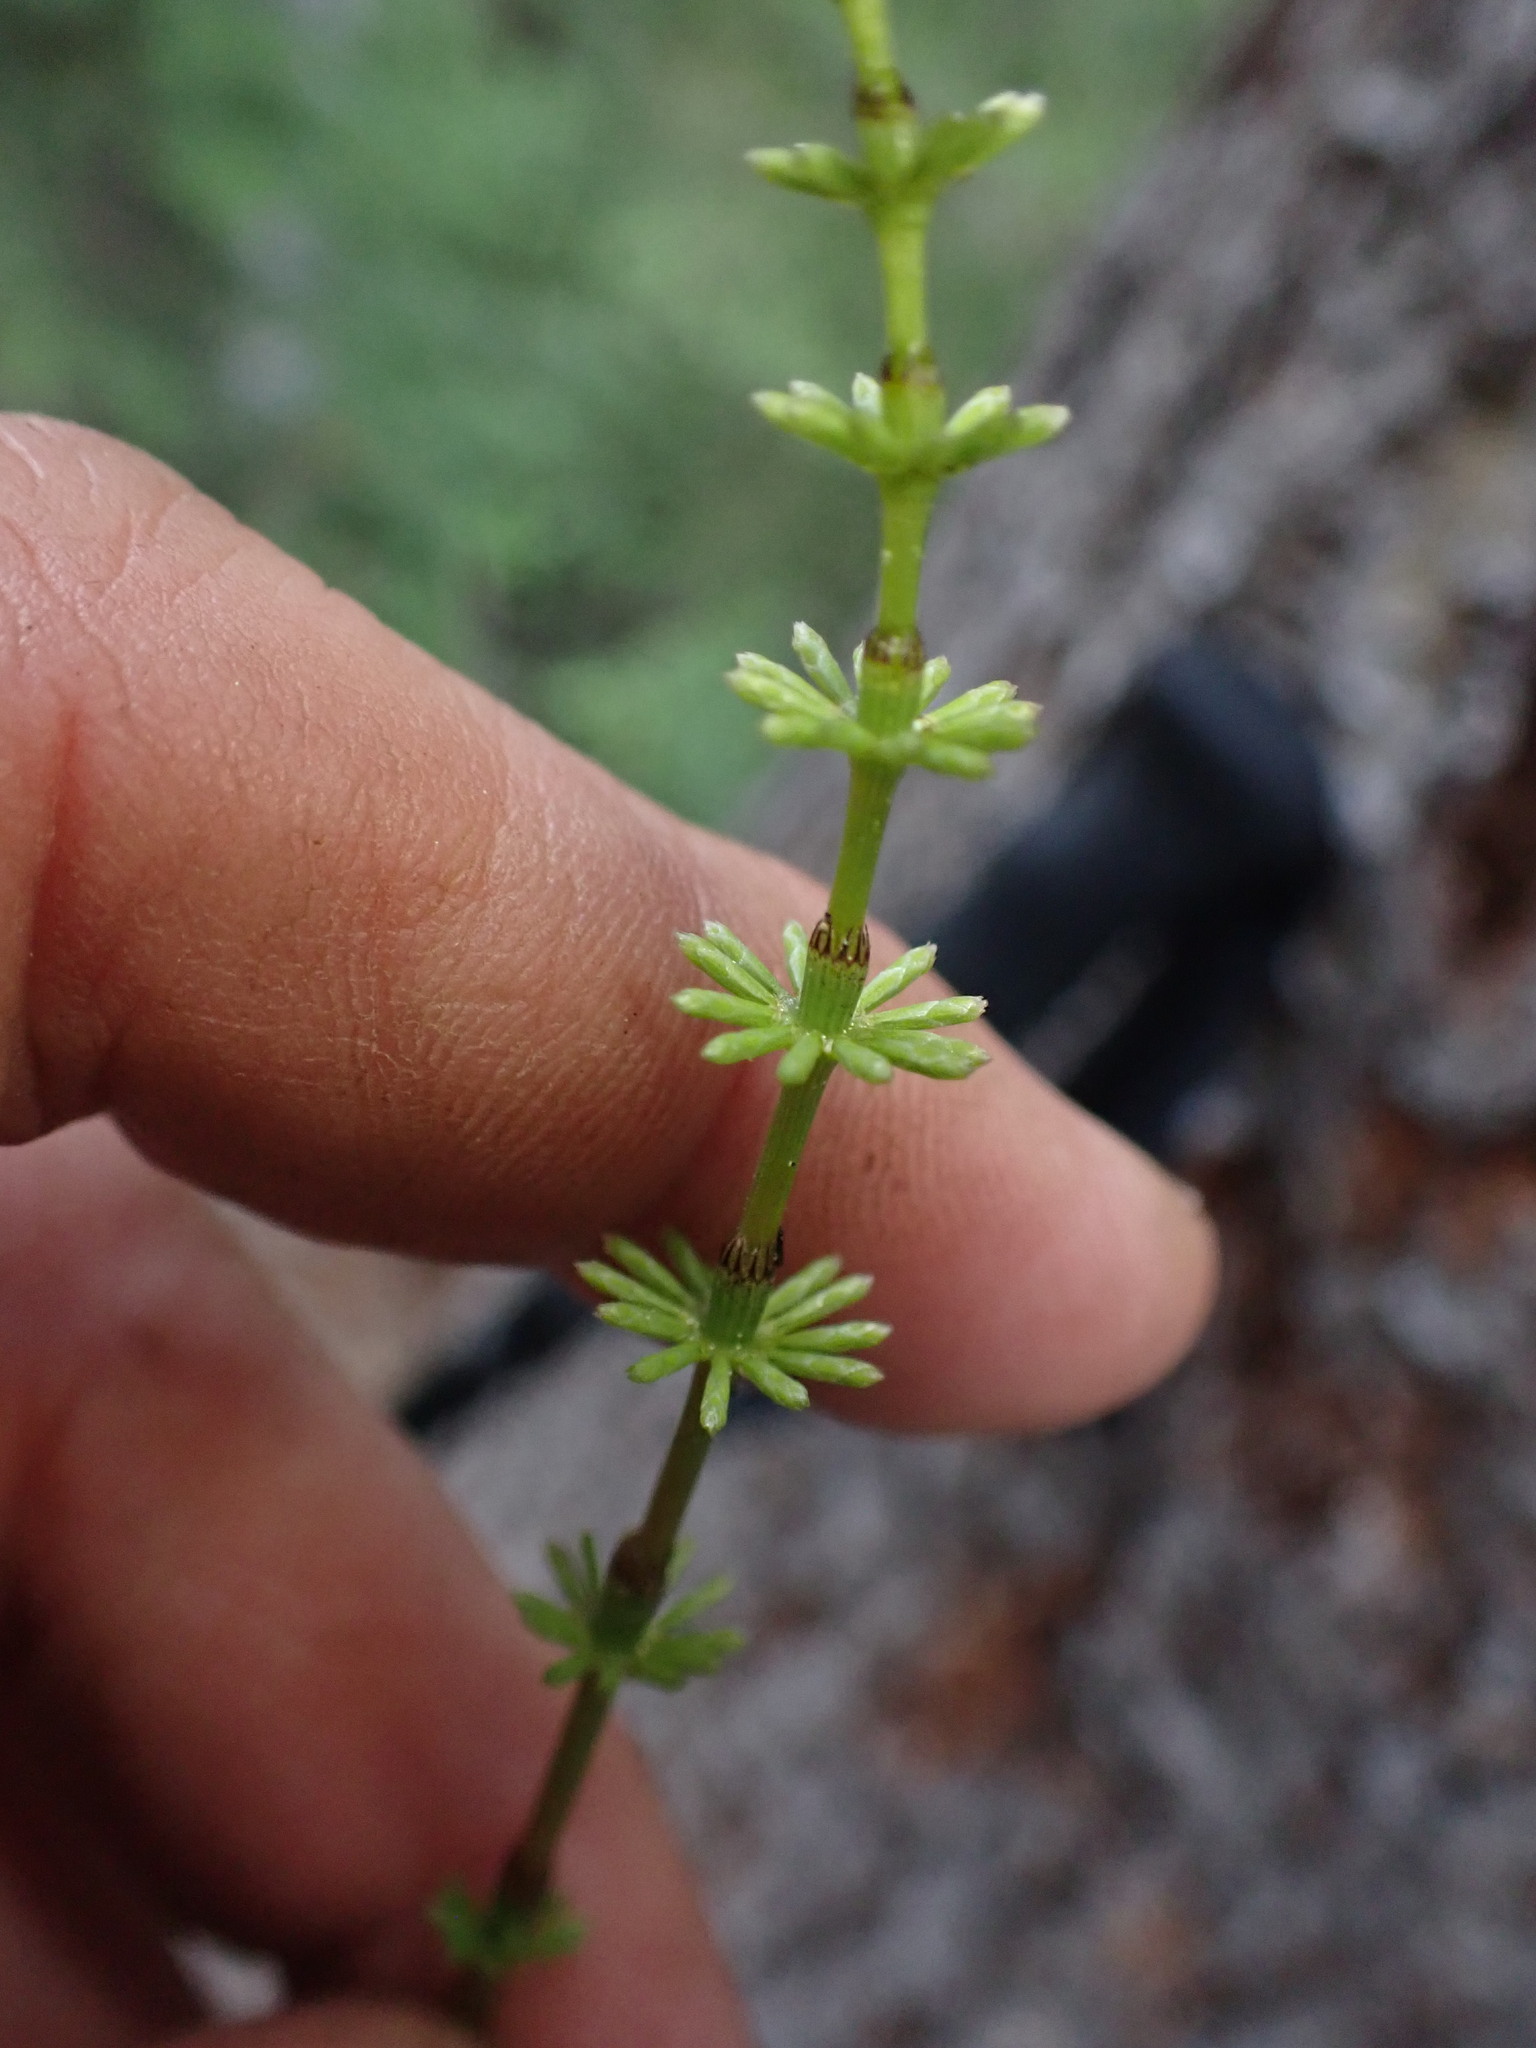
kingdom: Plantae
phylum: Tracheophyta
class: Polypodiopsida
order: Equisetales
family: Equisetaceae
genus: Equisetum
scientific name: Equisetum pratense
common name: Meadow horsetail
